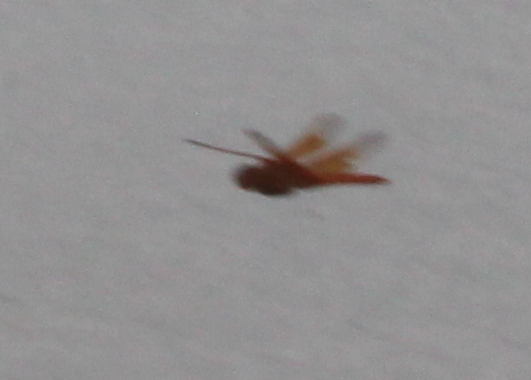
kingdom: Animalia
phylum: Arthropoda
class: Insecta
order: Odonata
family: Libellulidae
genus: Libellula
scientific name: Libellula saturata
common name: Flame skimmer
